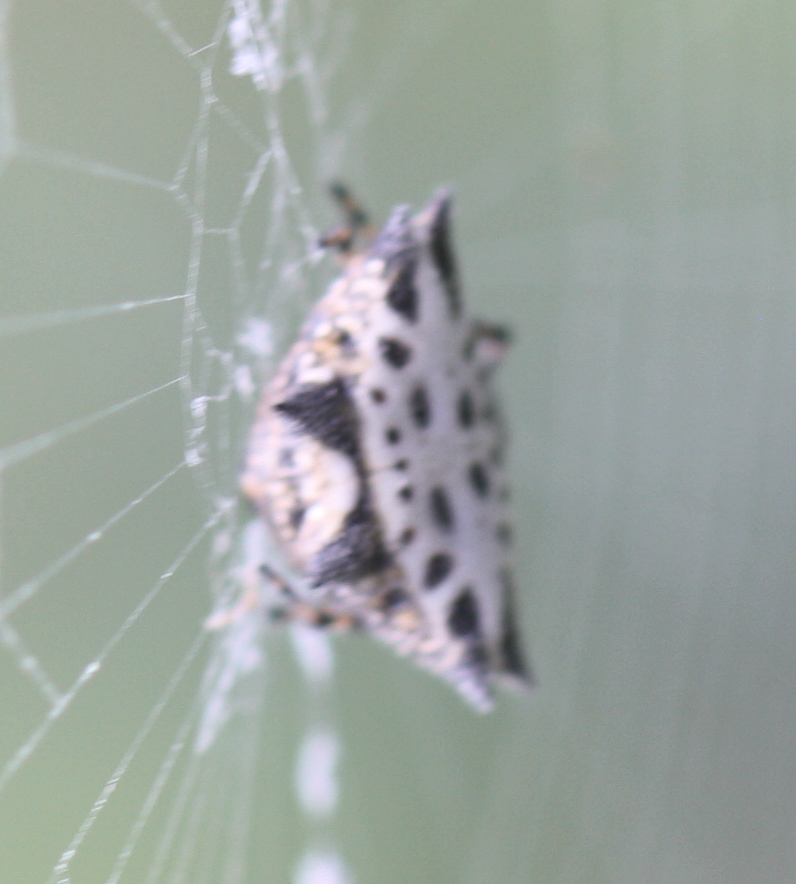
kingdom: Animalia
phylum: Arthropoda
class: Arachnida
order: Araneae
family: Araneidae
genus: Gasteracantha
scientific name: Gasteracantha cancriformis
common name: Orb weavers
